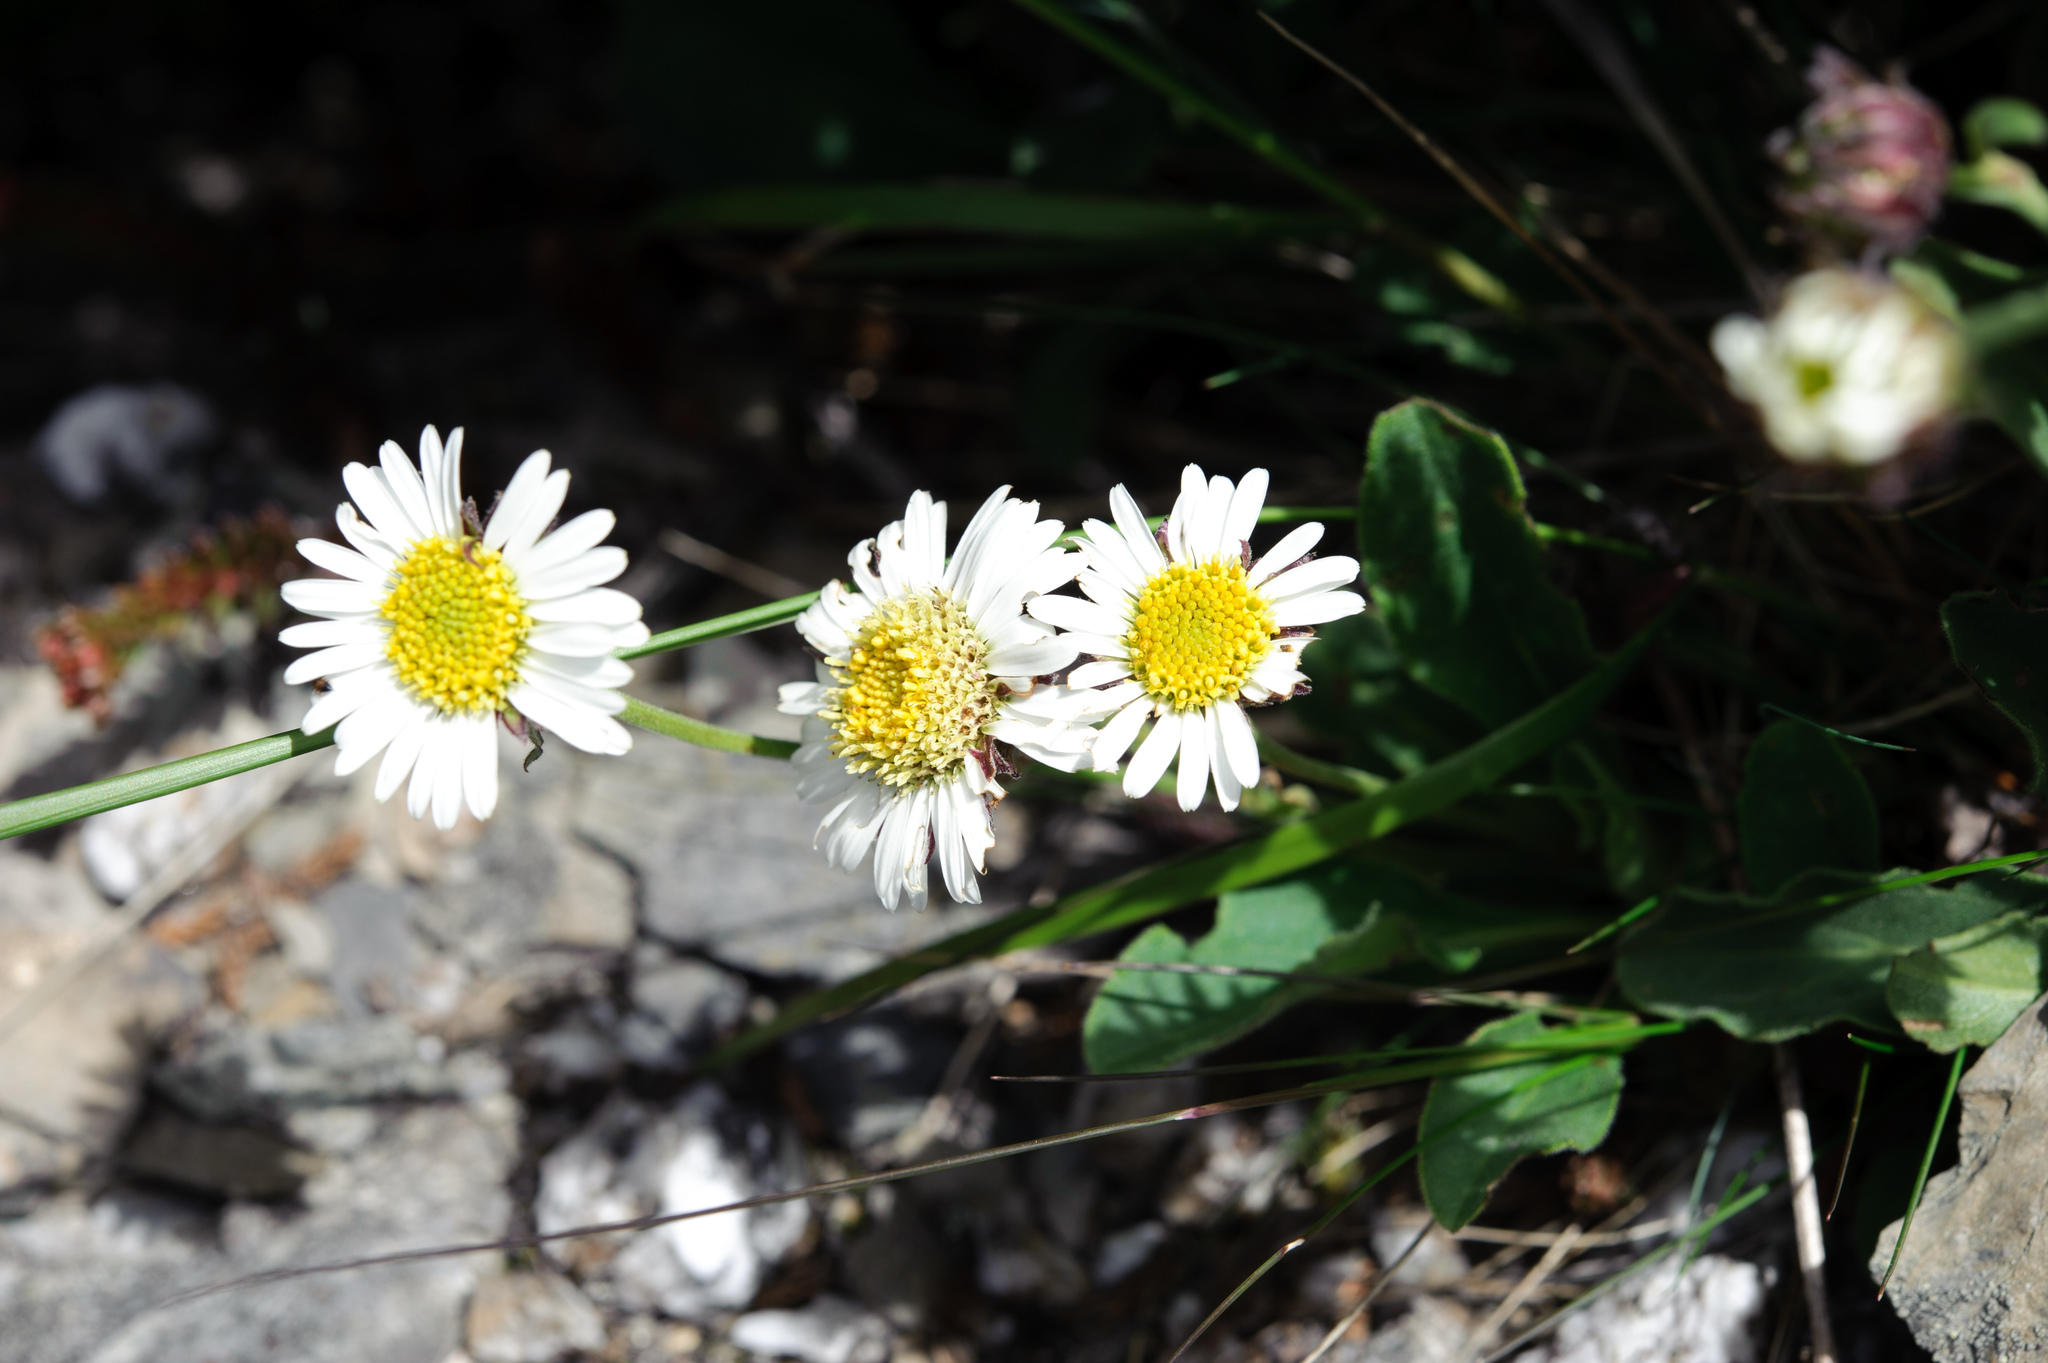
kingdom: Plantae
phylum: Tracheophyta
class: Magnoliopsida
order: Asterales
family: Asteraceae
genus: Aster
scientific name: Aster takasagomontanus
